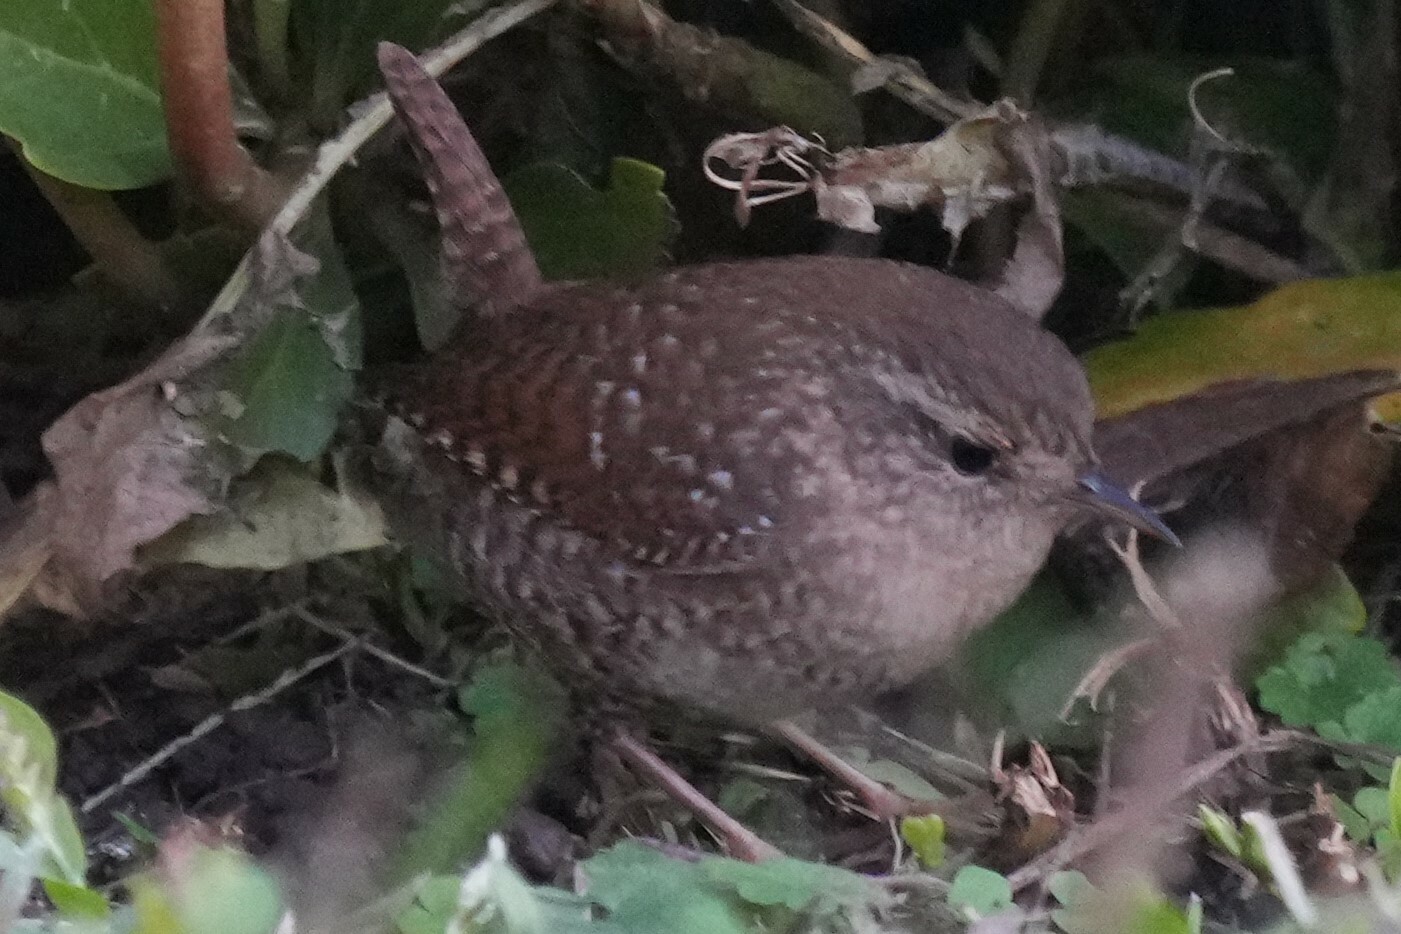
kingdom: Animalia
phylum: Chordata
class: Aves
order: Passeriformes
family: Troglodytidae
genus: Troglodytes
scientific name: Troglodytes hiemalis
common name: Winter wren
